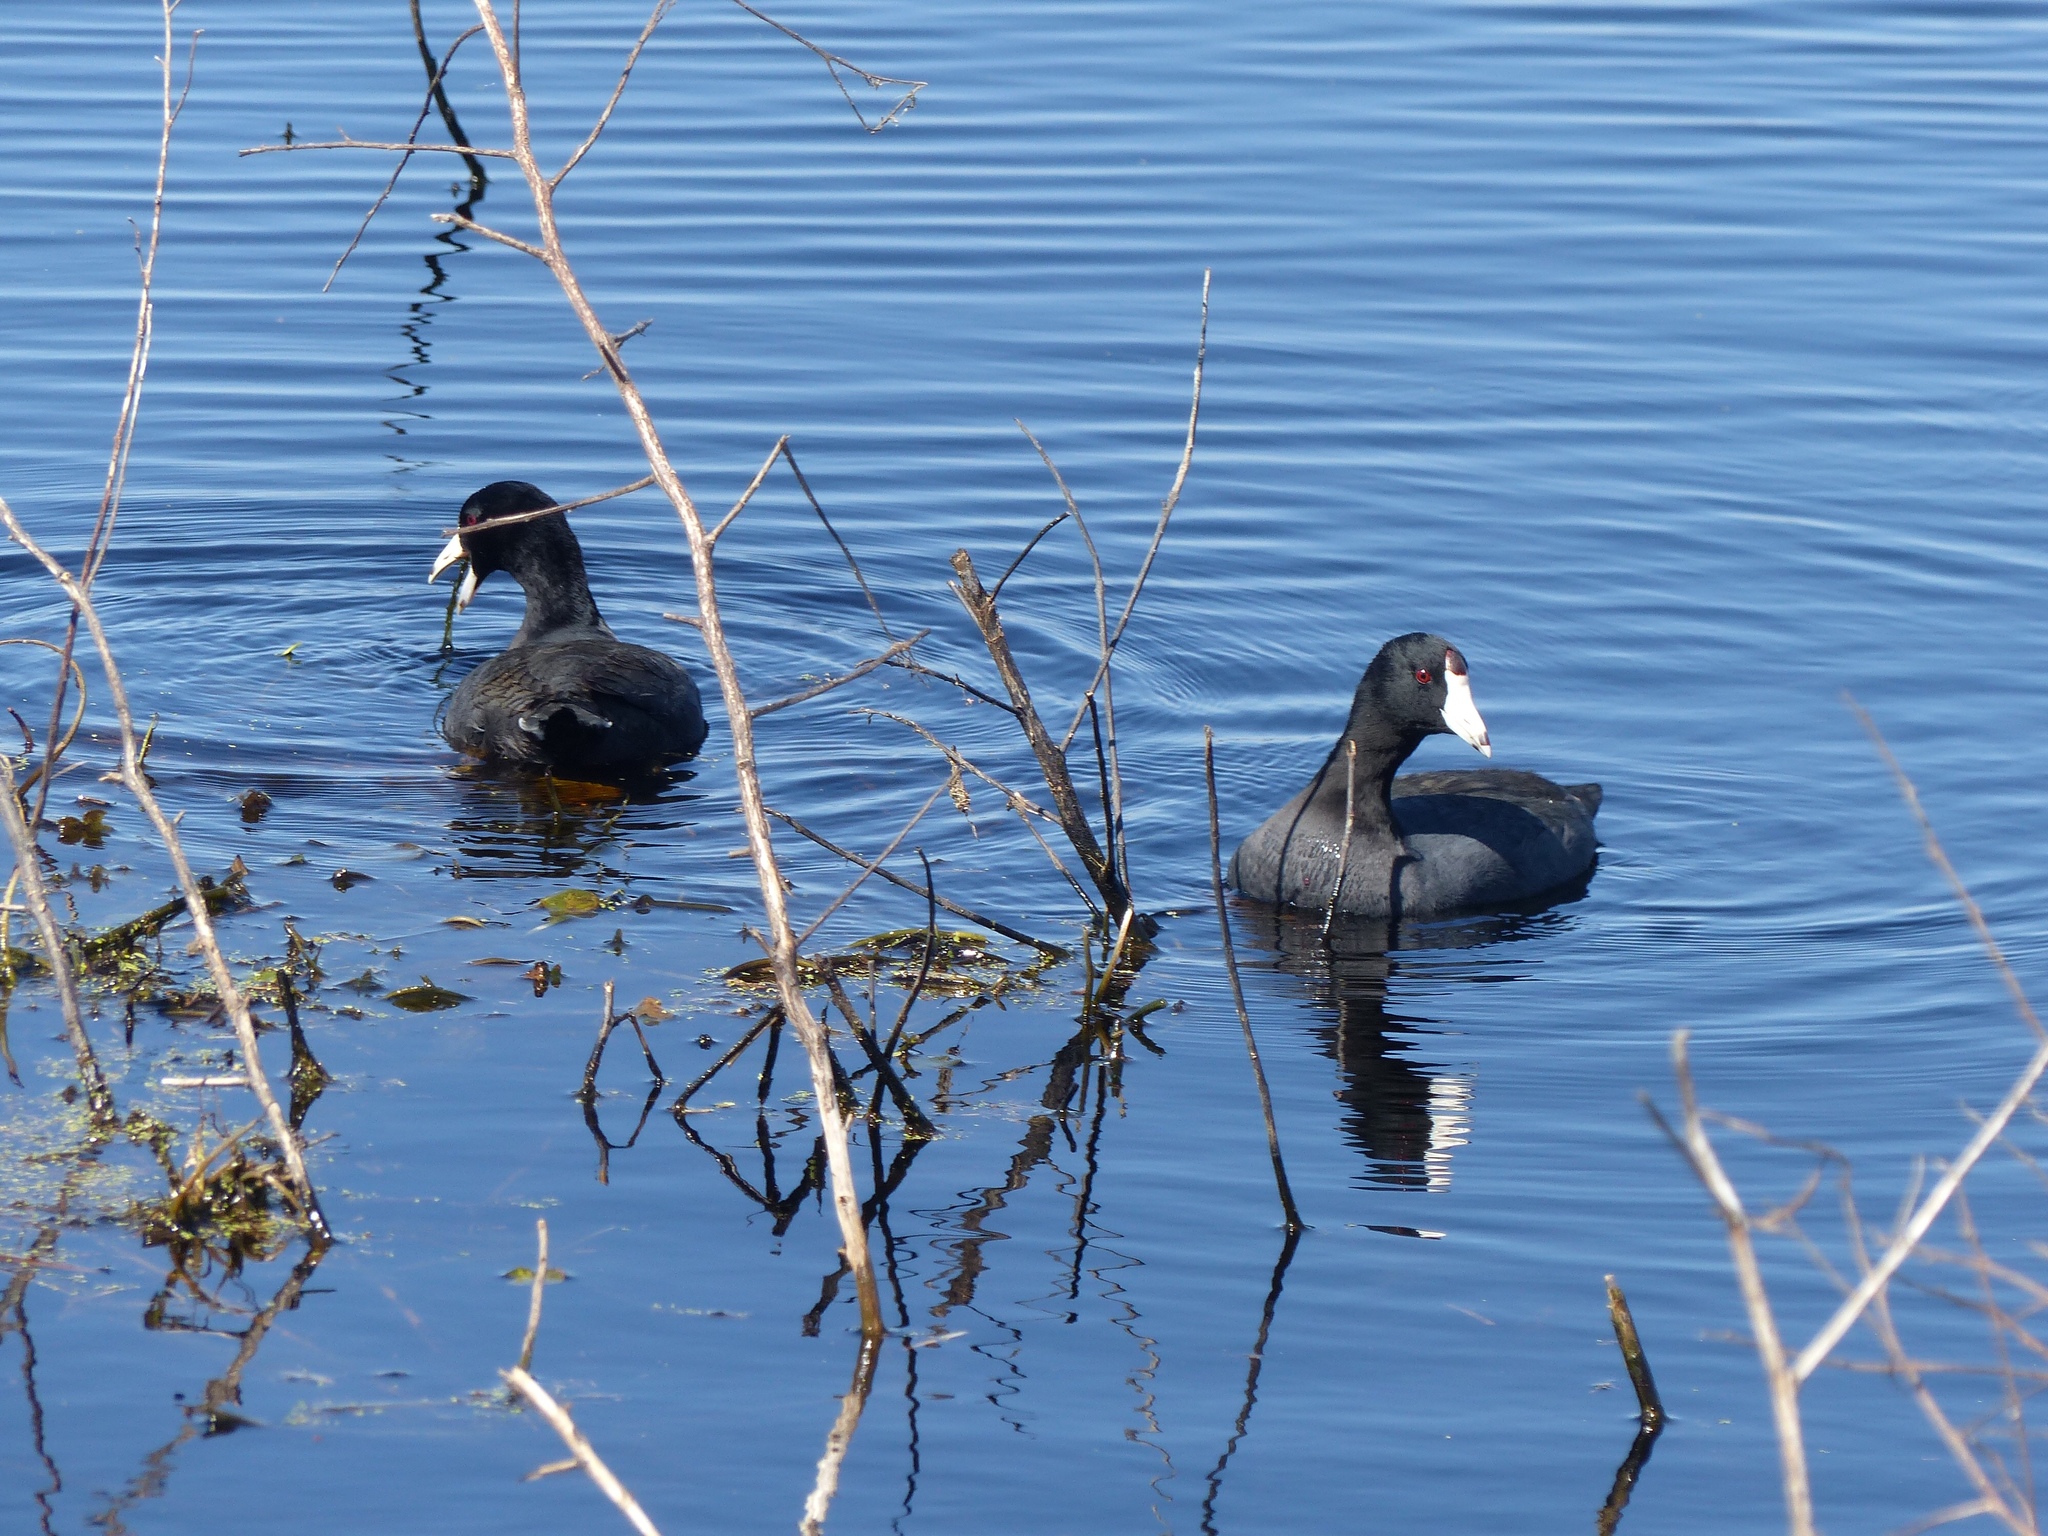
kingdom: Animalia
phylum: Chordata
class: Aves
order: Gruiformes
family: Rallidae
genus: Fulica
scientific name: Fulica americana
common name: American coot
